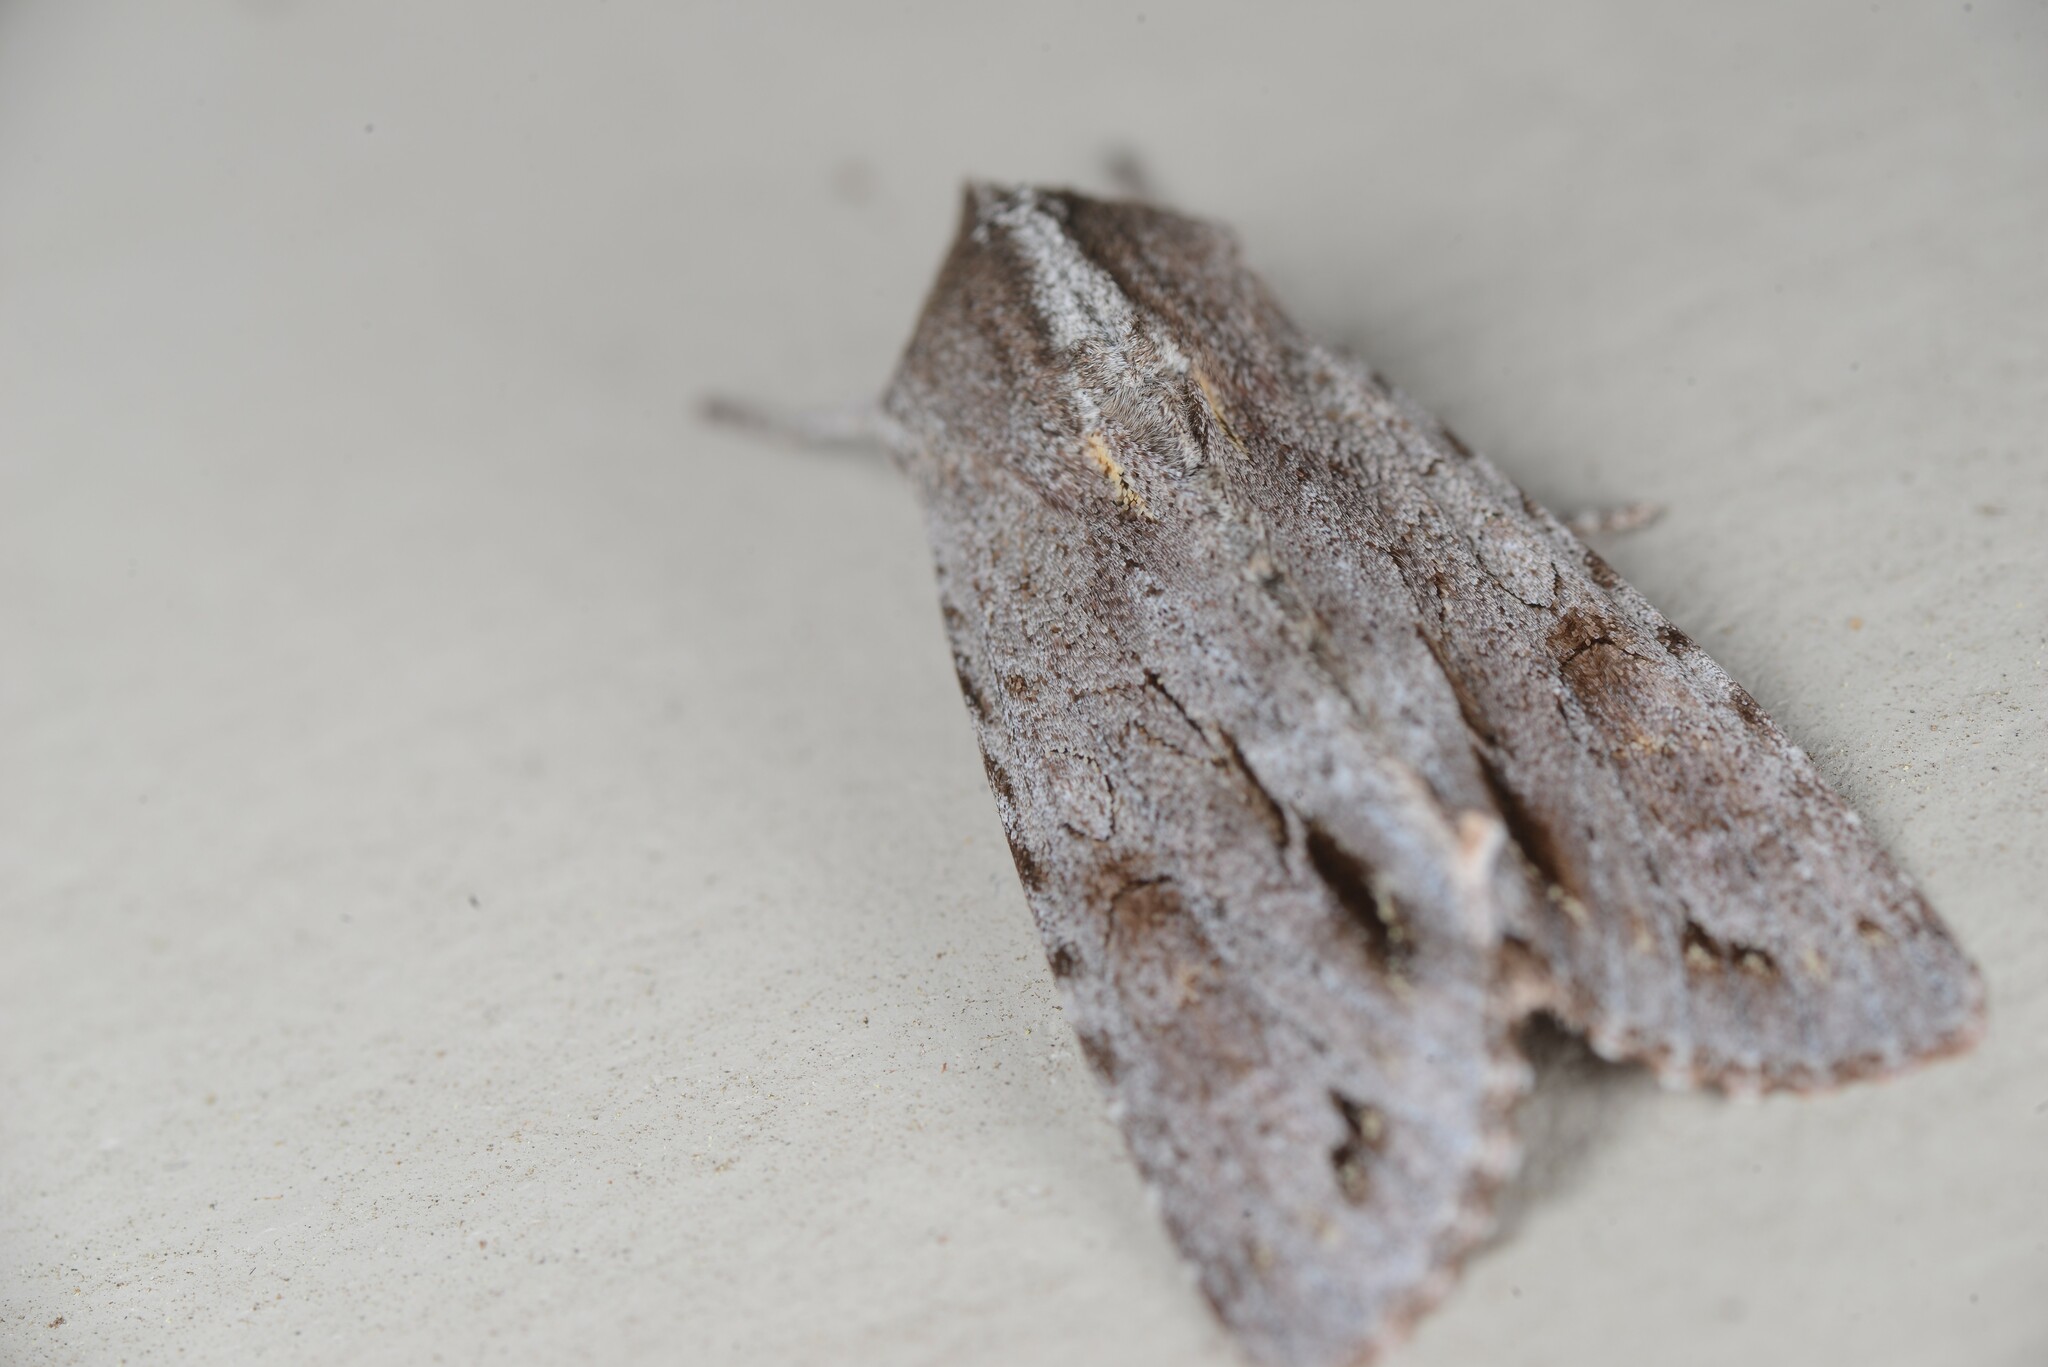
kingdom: Animalia
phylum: Arthropoda
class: Insecta
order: Lepidoptera
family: Noctuidae
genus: Ichneutica
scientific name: Ichneutica
